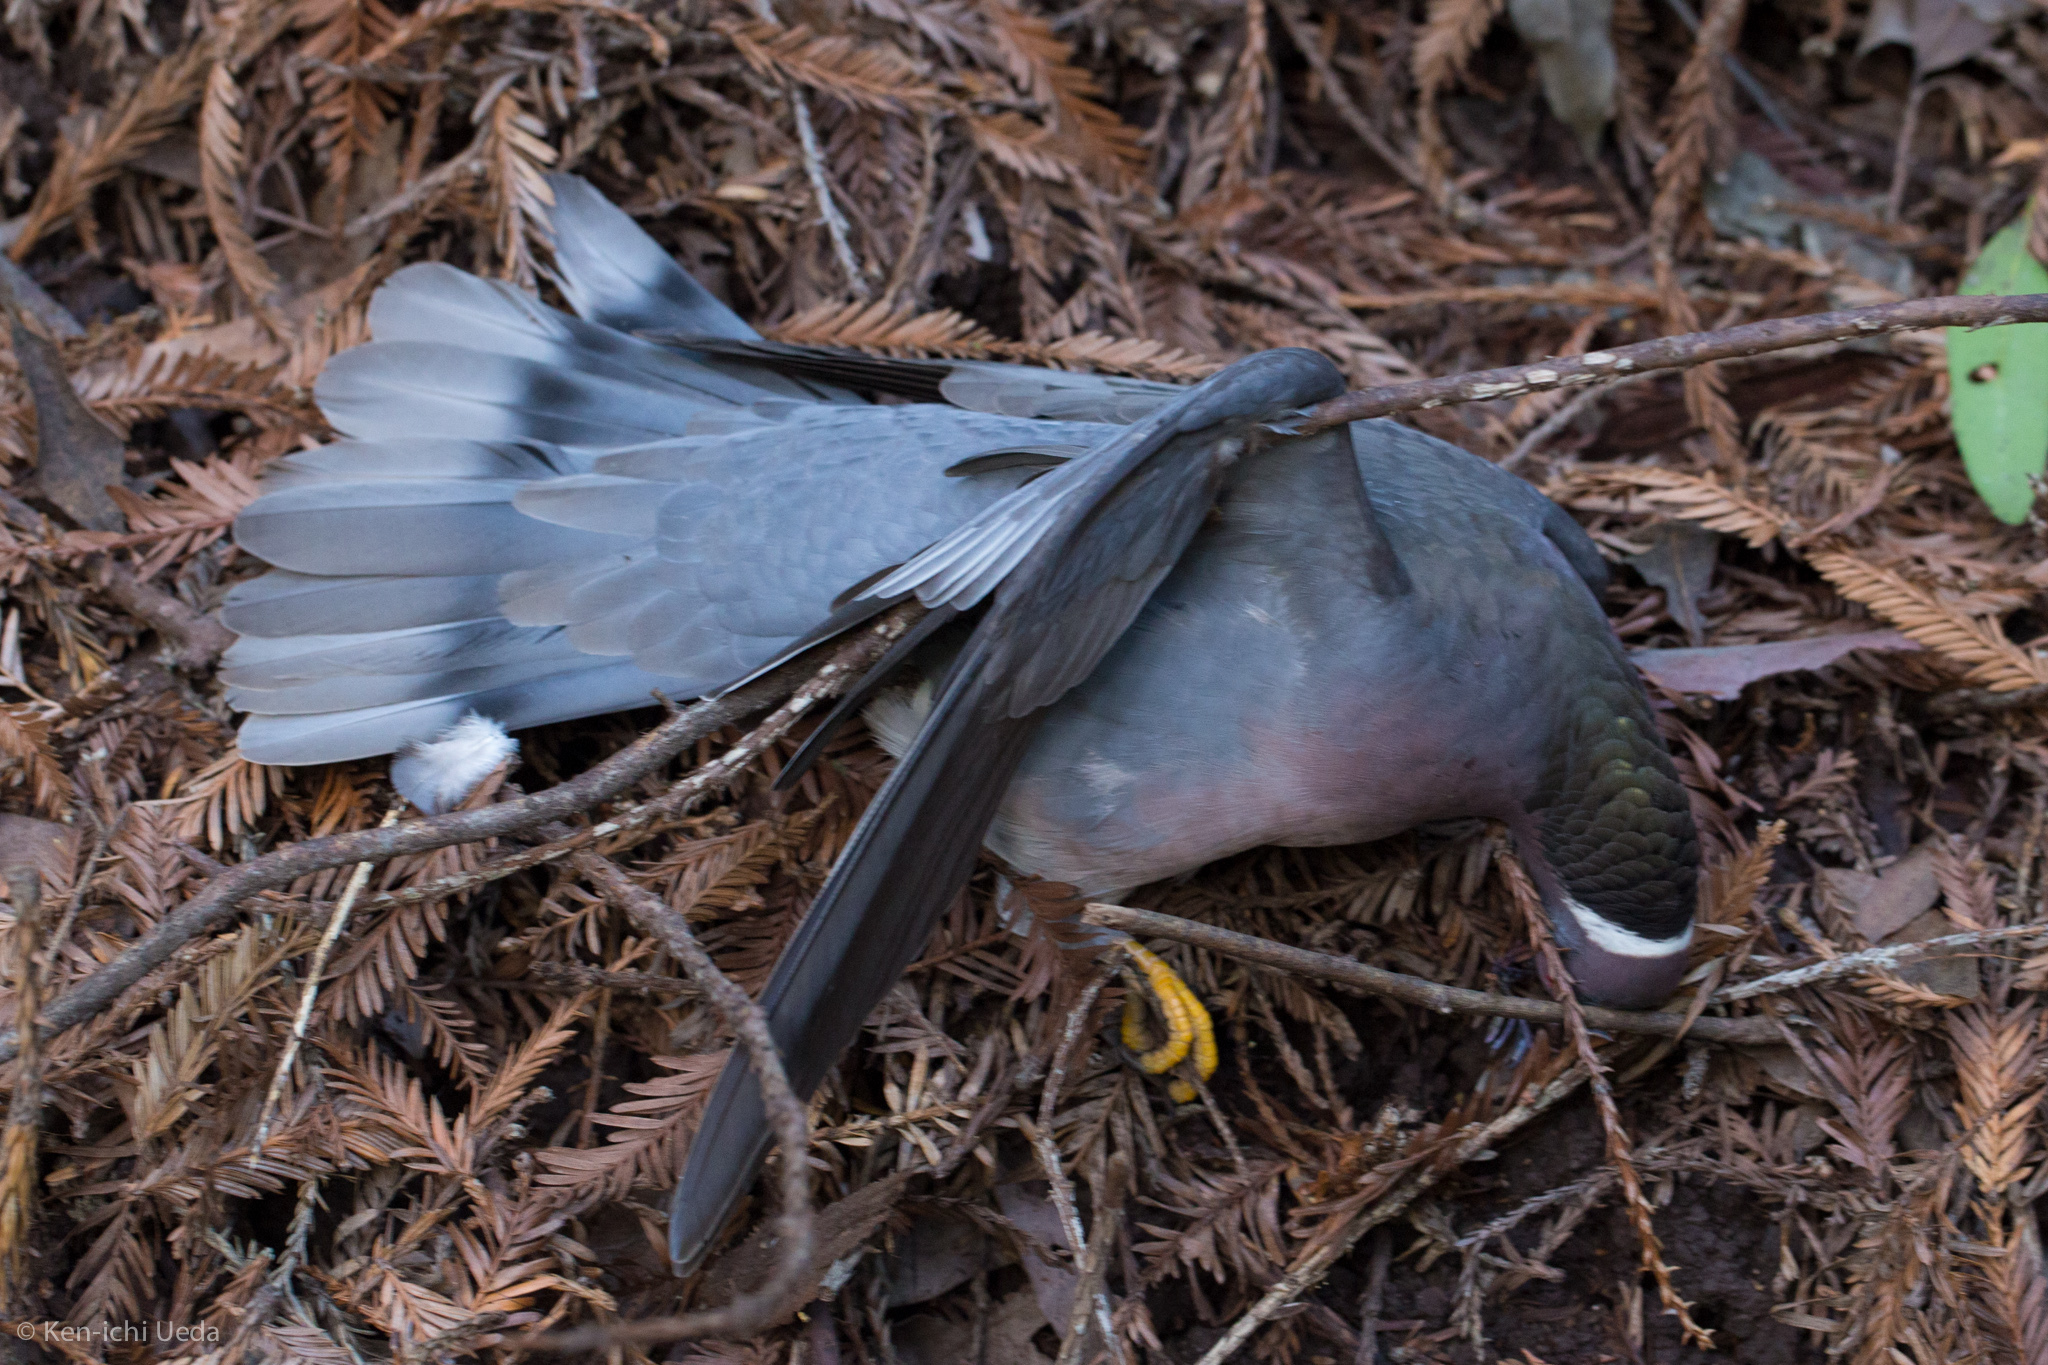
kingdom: Animalia
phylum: Chordata
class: Aves
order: Columbiformes
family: Columbidae
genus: Patagioenas
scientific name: Patagioenas fasciata
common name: Band-tailed pigeon
